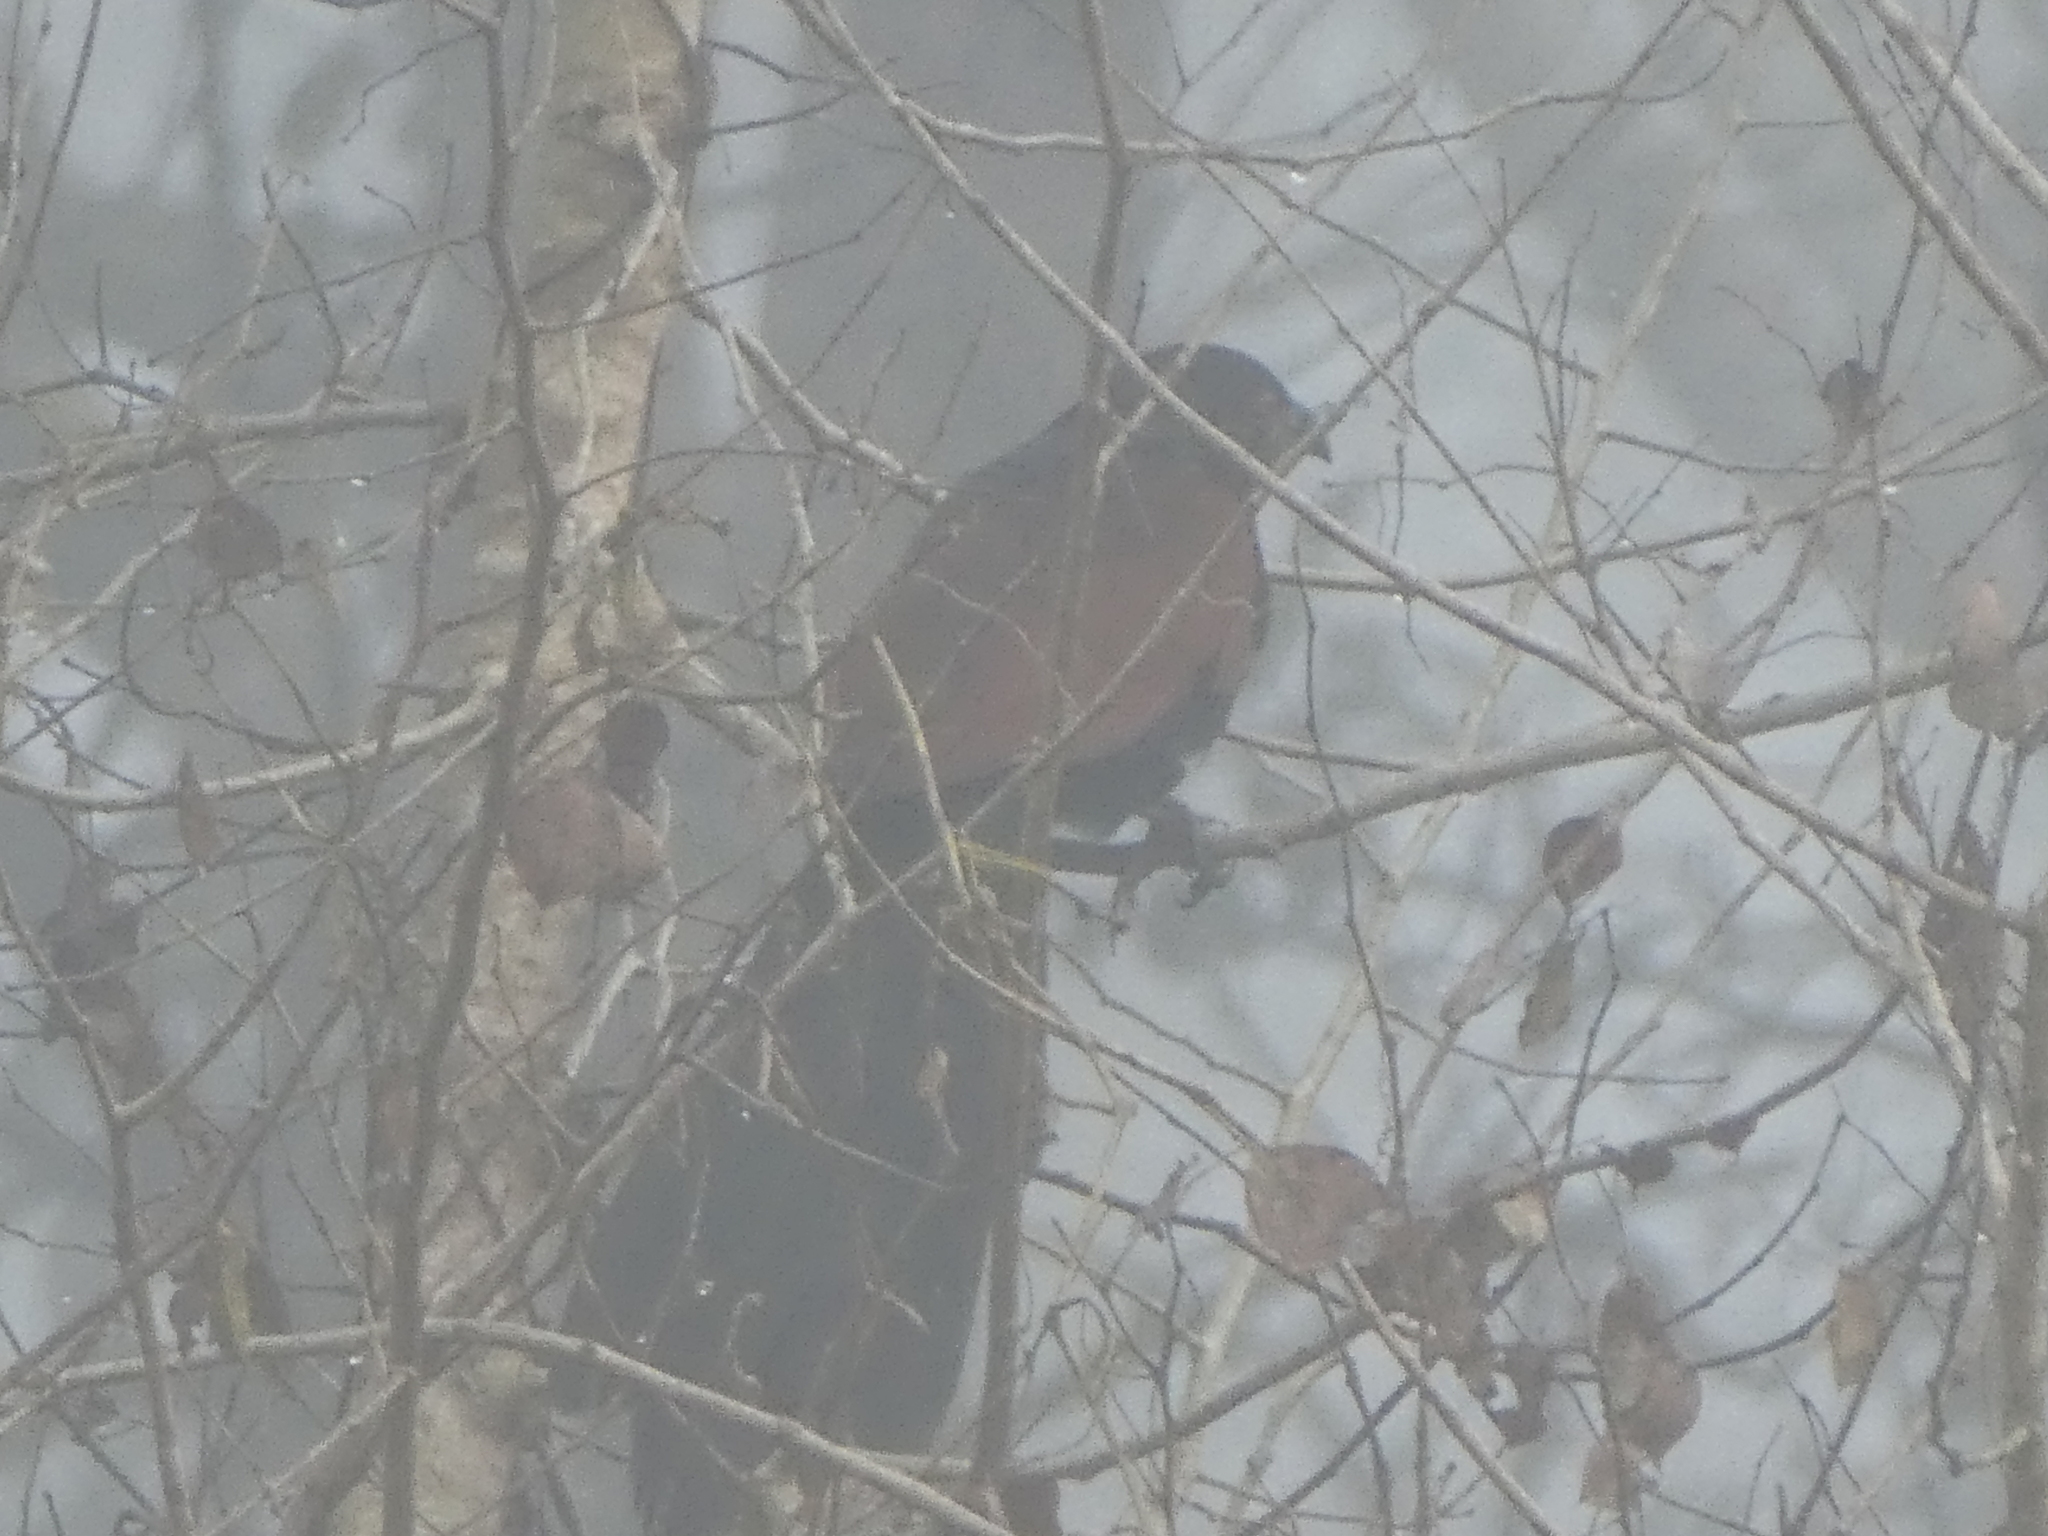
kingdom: Animalia
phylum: Chordata
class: Aves
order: Cuculiformes
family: Cuculidae
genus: Centropus
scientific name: Centropus sinensis
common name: Greater coucal
